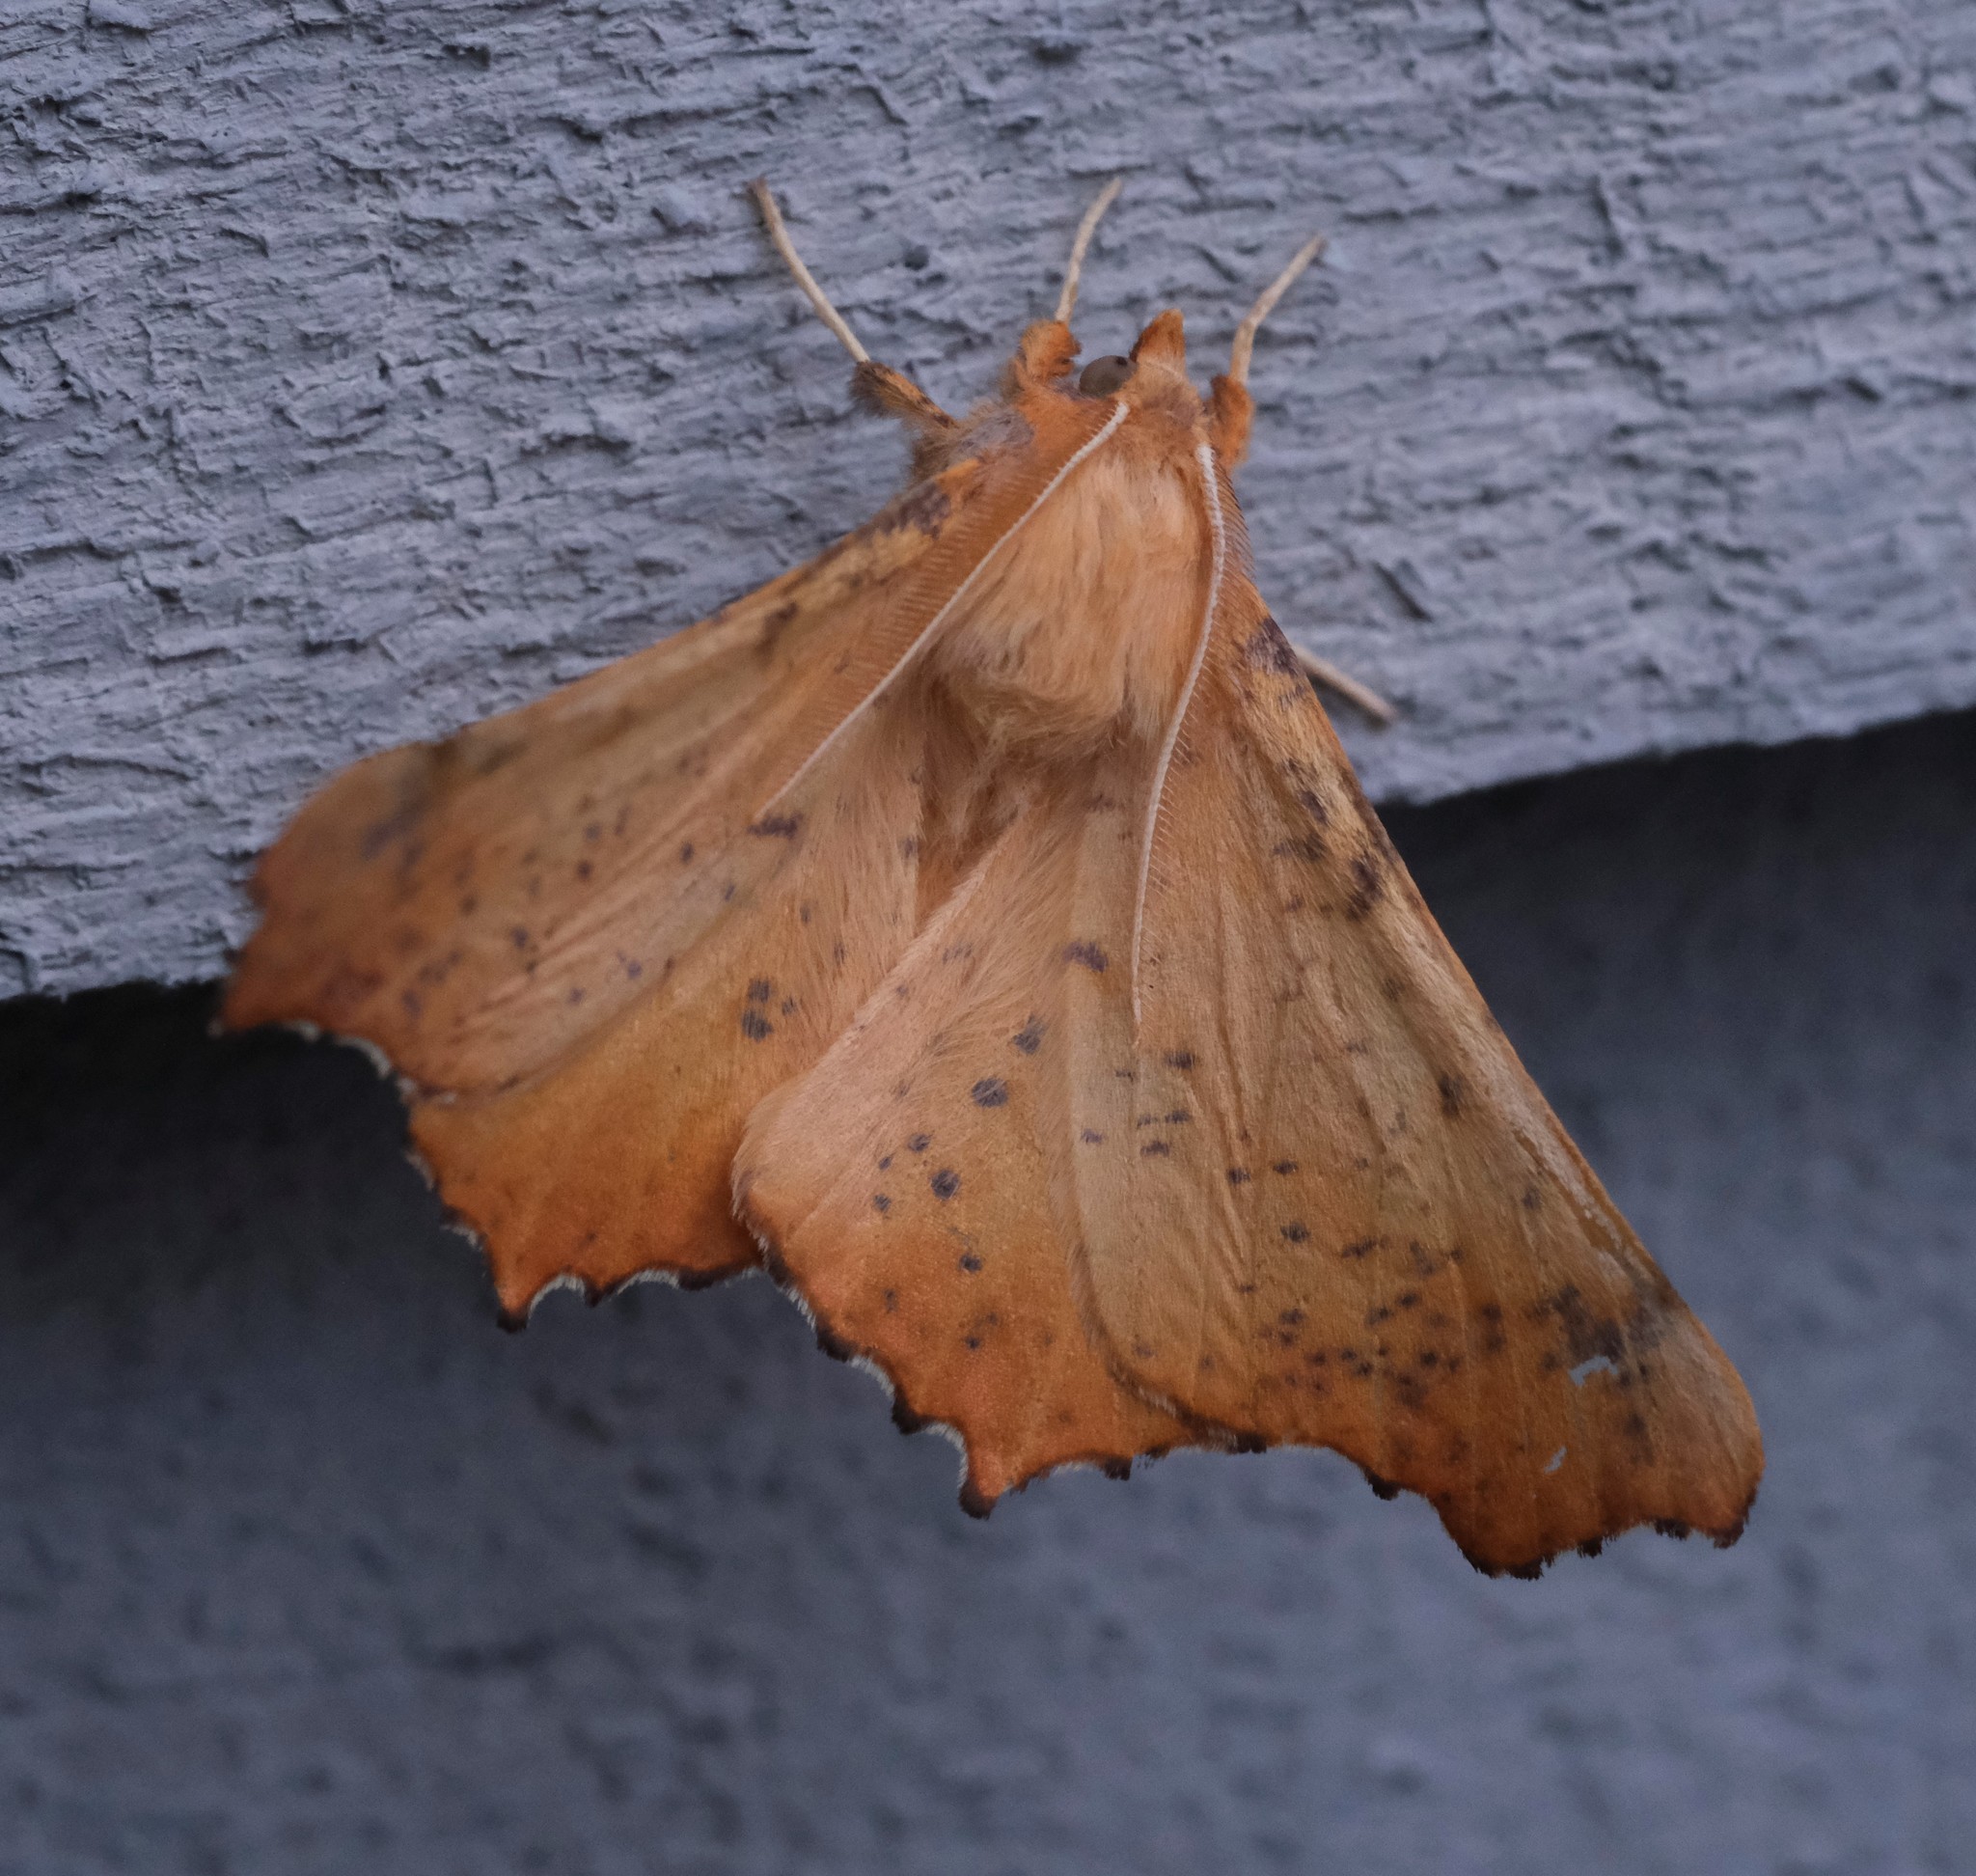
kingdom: Animalia
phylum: Arthropoda
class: Insecta
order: Lepidoptera
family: Geometridae
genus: Ennomos
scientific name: Ennomos magnaria
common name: Maple spanworm
